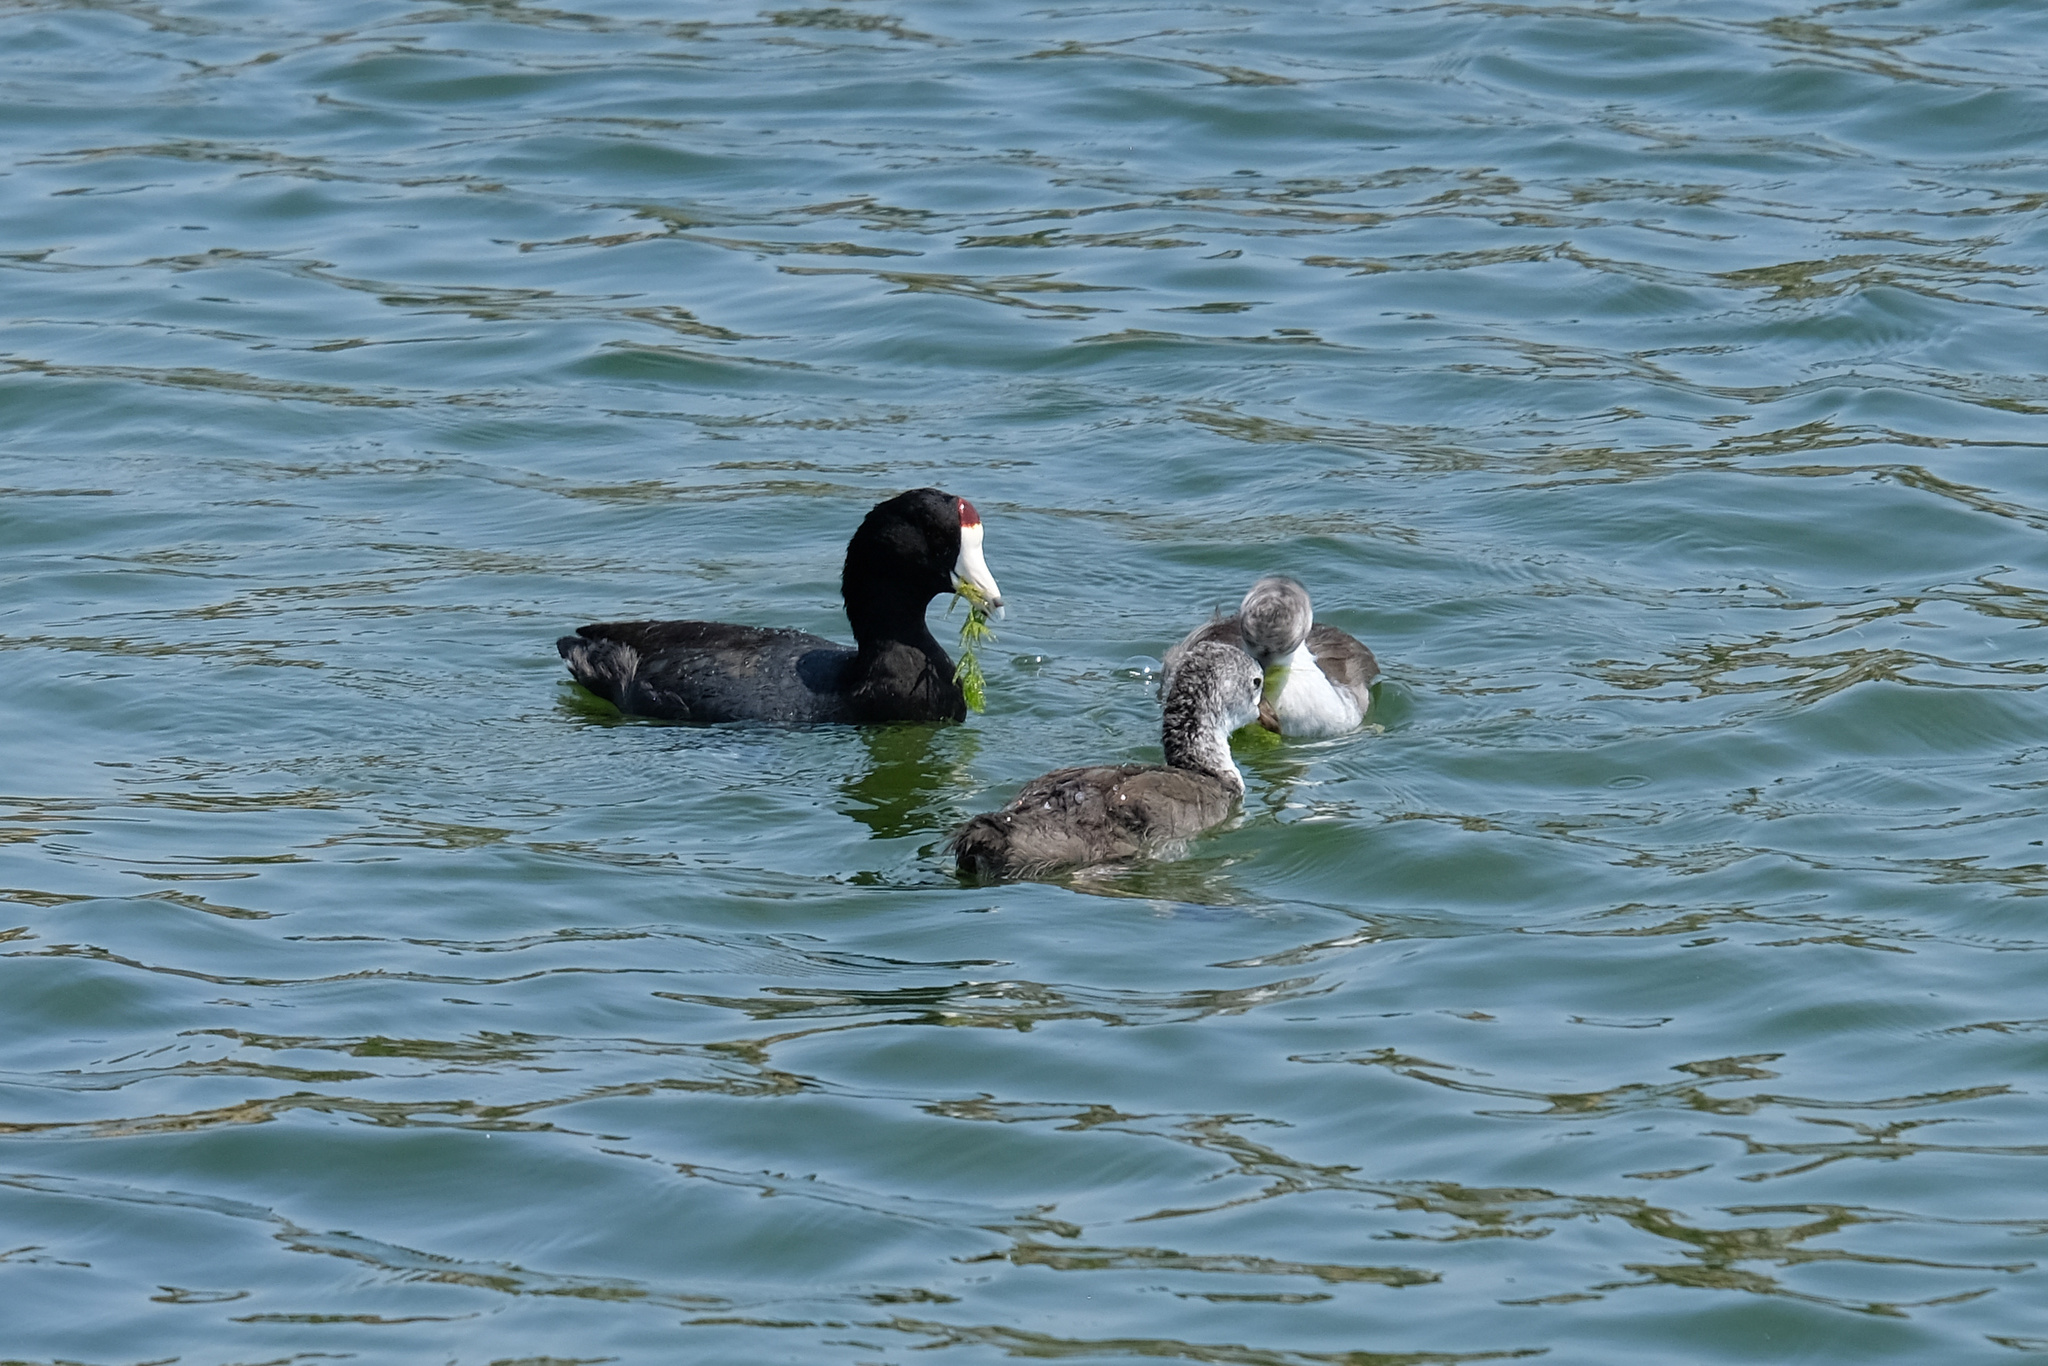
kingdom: Animalia
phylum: Chordata
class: Aves
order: Gruiformes
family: Rallidae
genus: Fulica
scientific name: Fulica americana
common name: American coot
